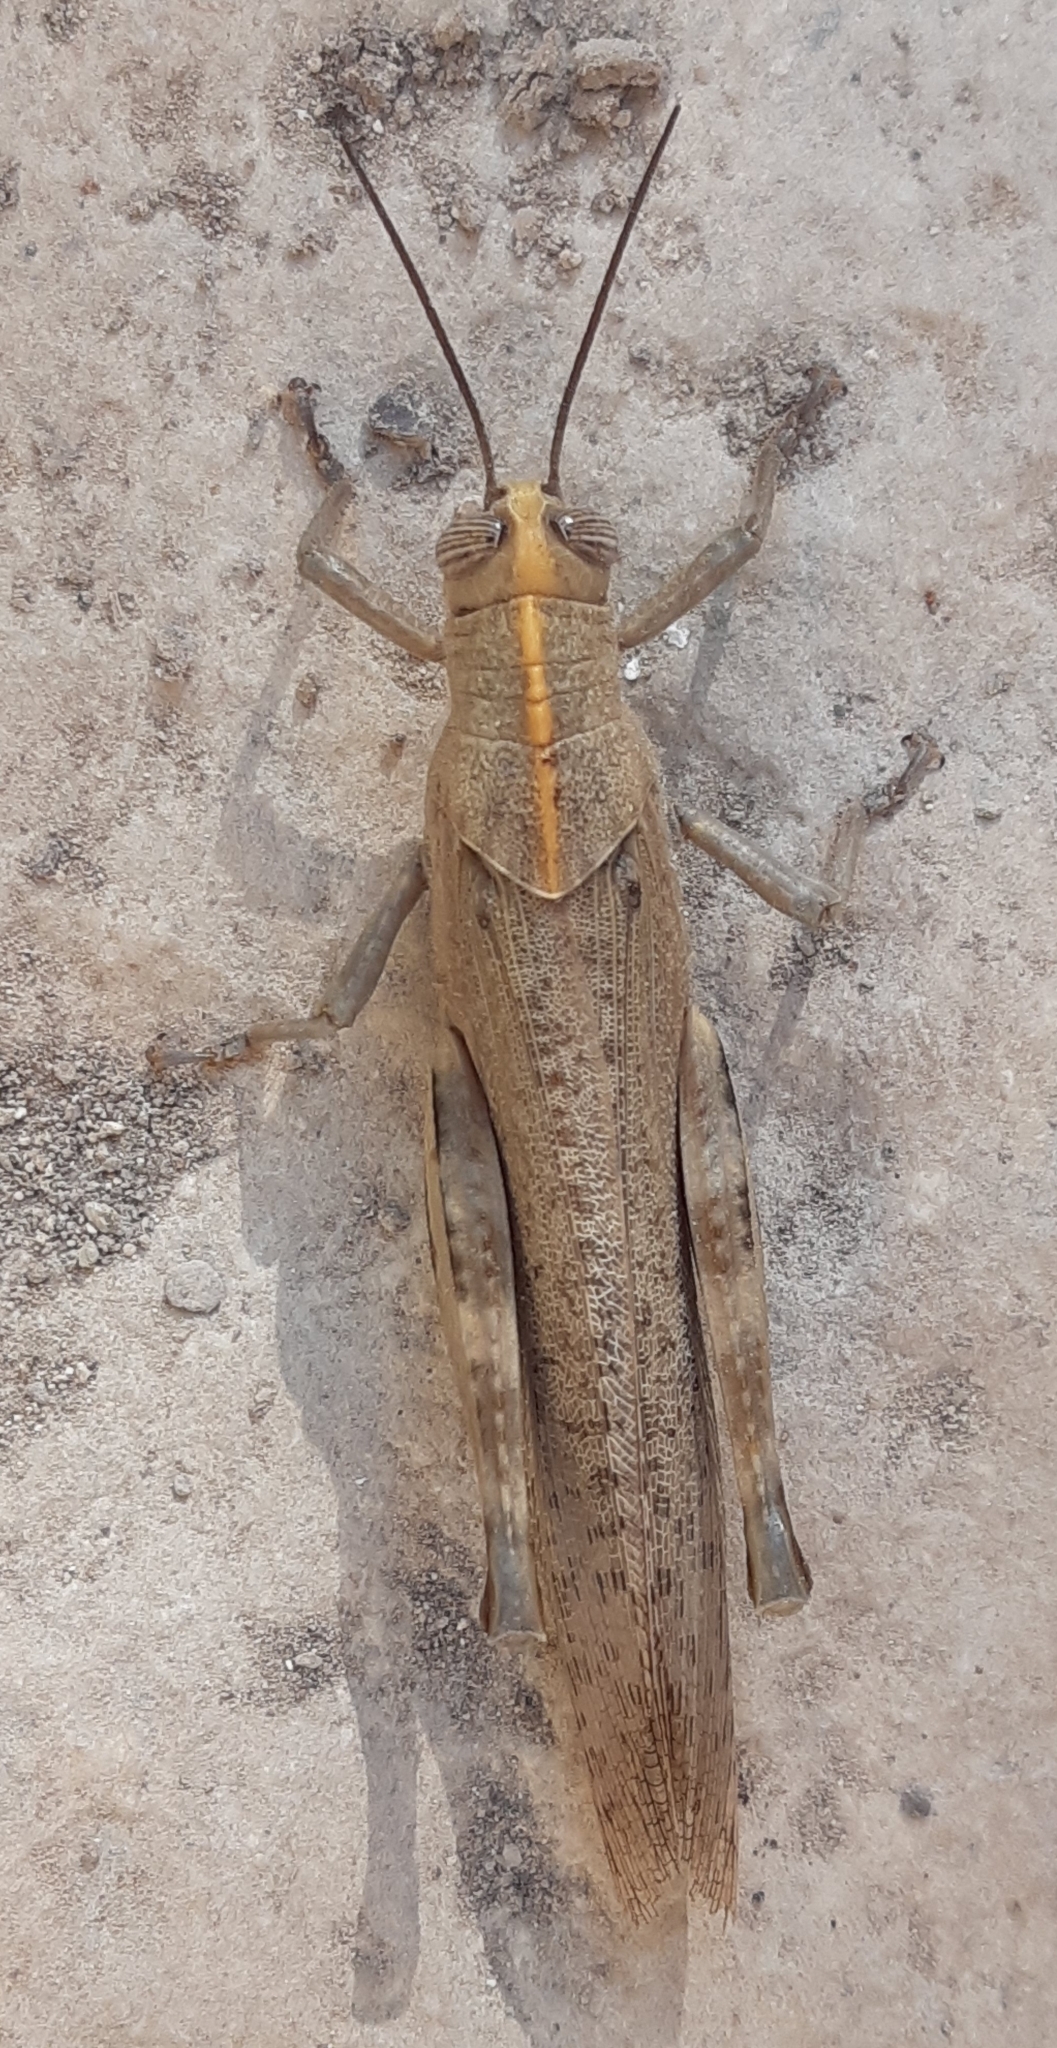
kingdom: Animalia
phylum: Arthropoda
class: Insecta
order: Orthoptera
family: Acrididae
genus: Anacridium
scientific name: Anacridium aegyptium
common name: Egyptian grasshopper
